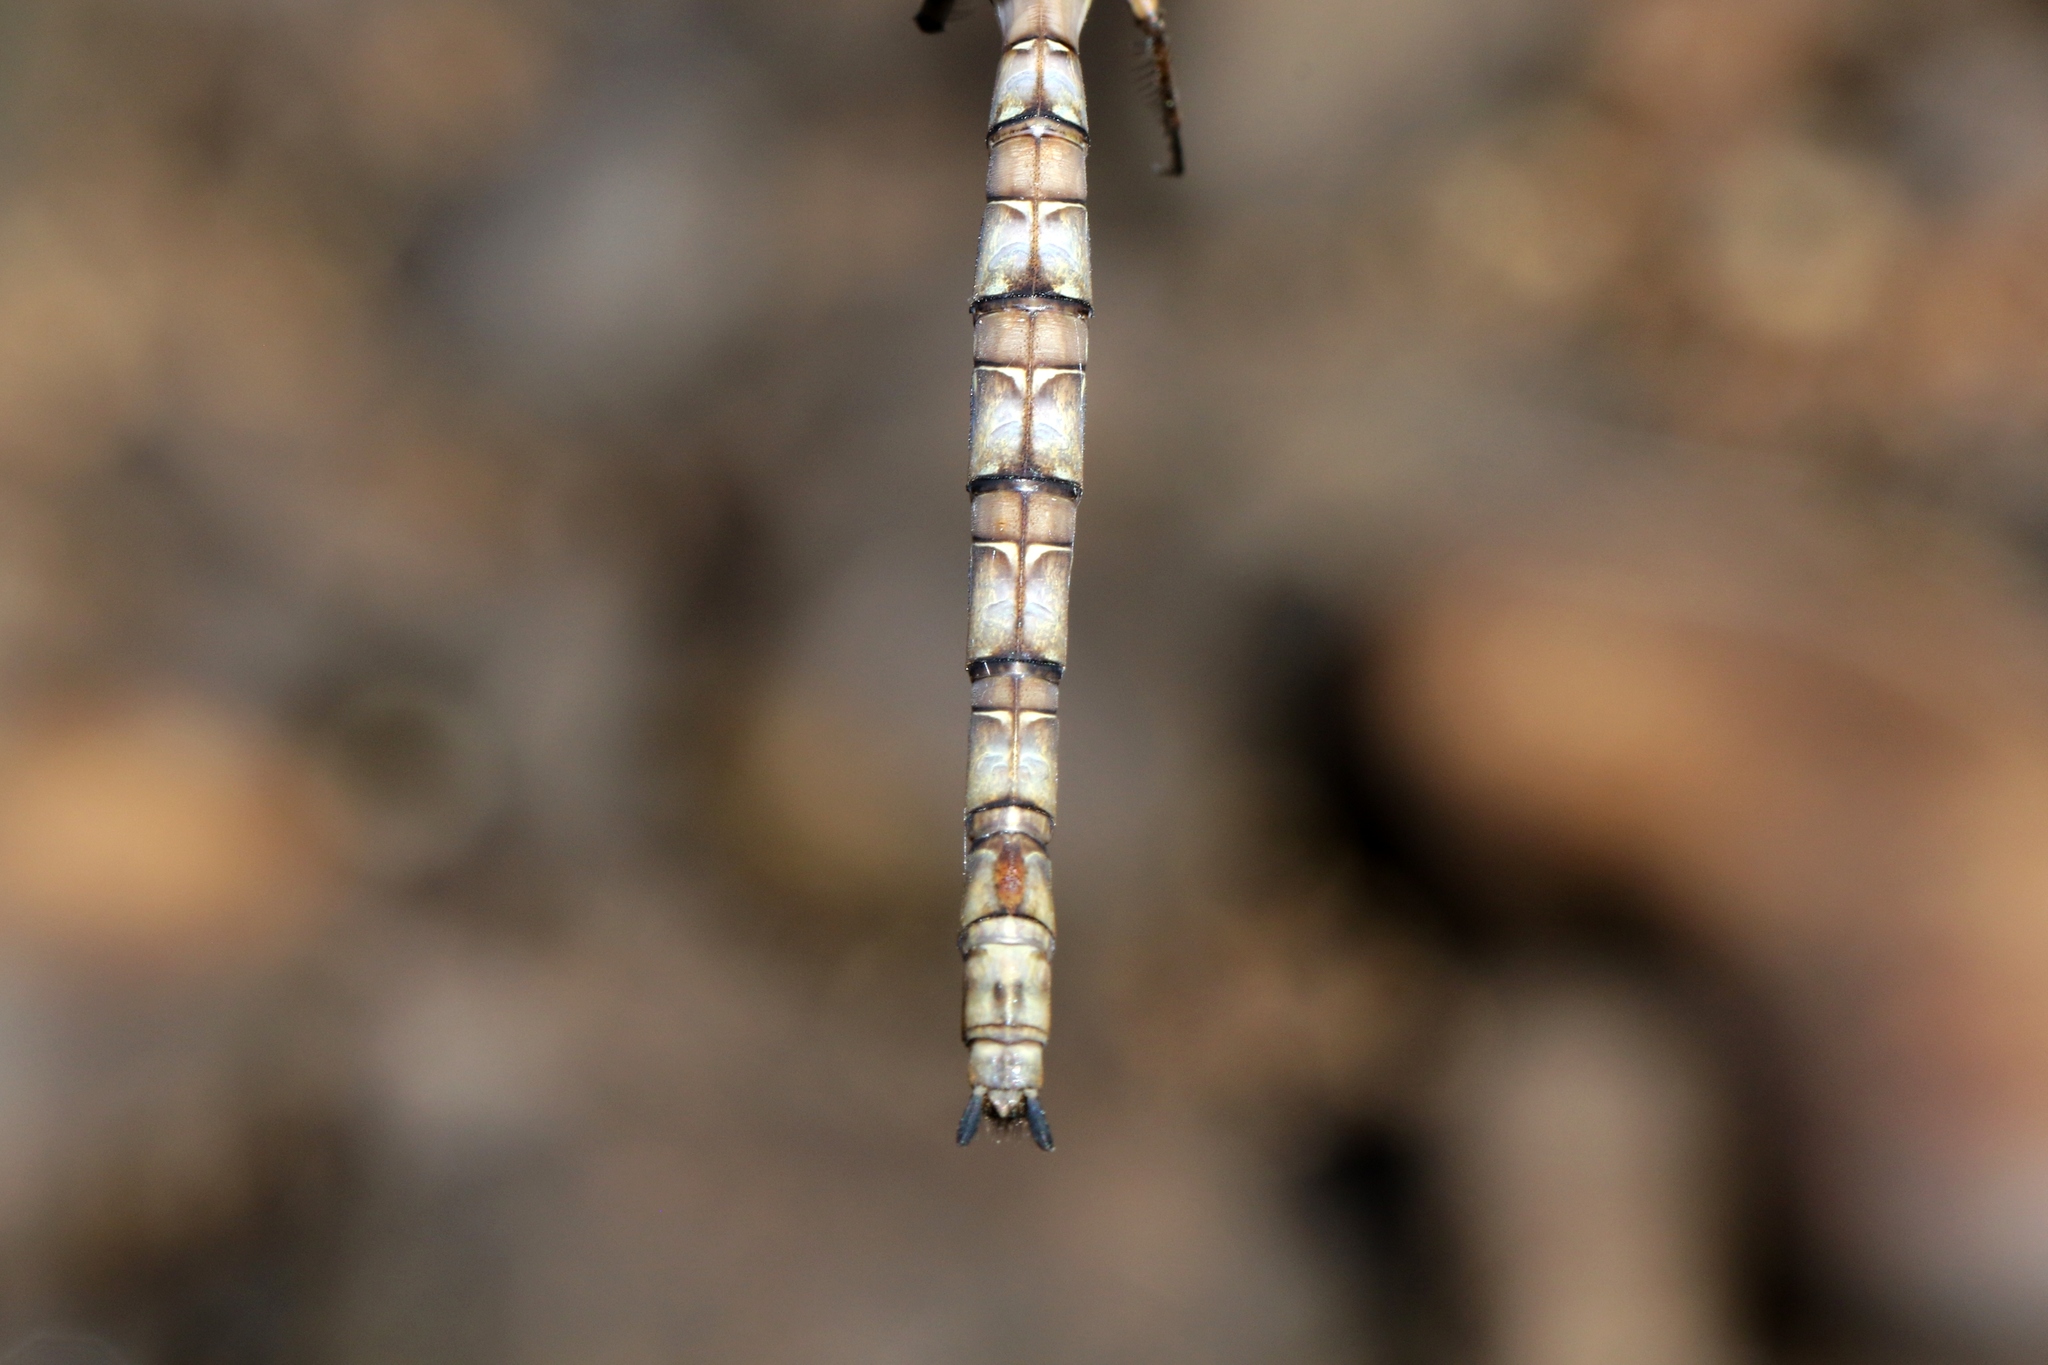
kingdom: Animalia
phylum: Arthropoda
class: Insecta
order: Odonata
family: Aeshnidae
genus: Boyeria
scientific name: Boyeria grafiana
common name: Ocellated darner
